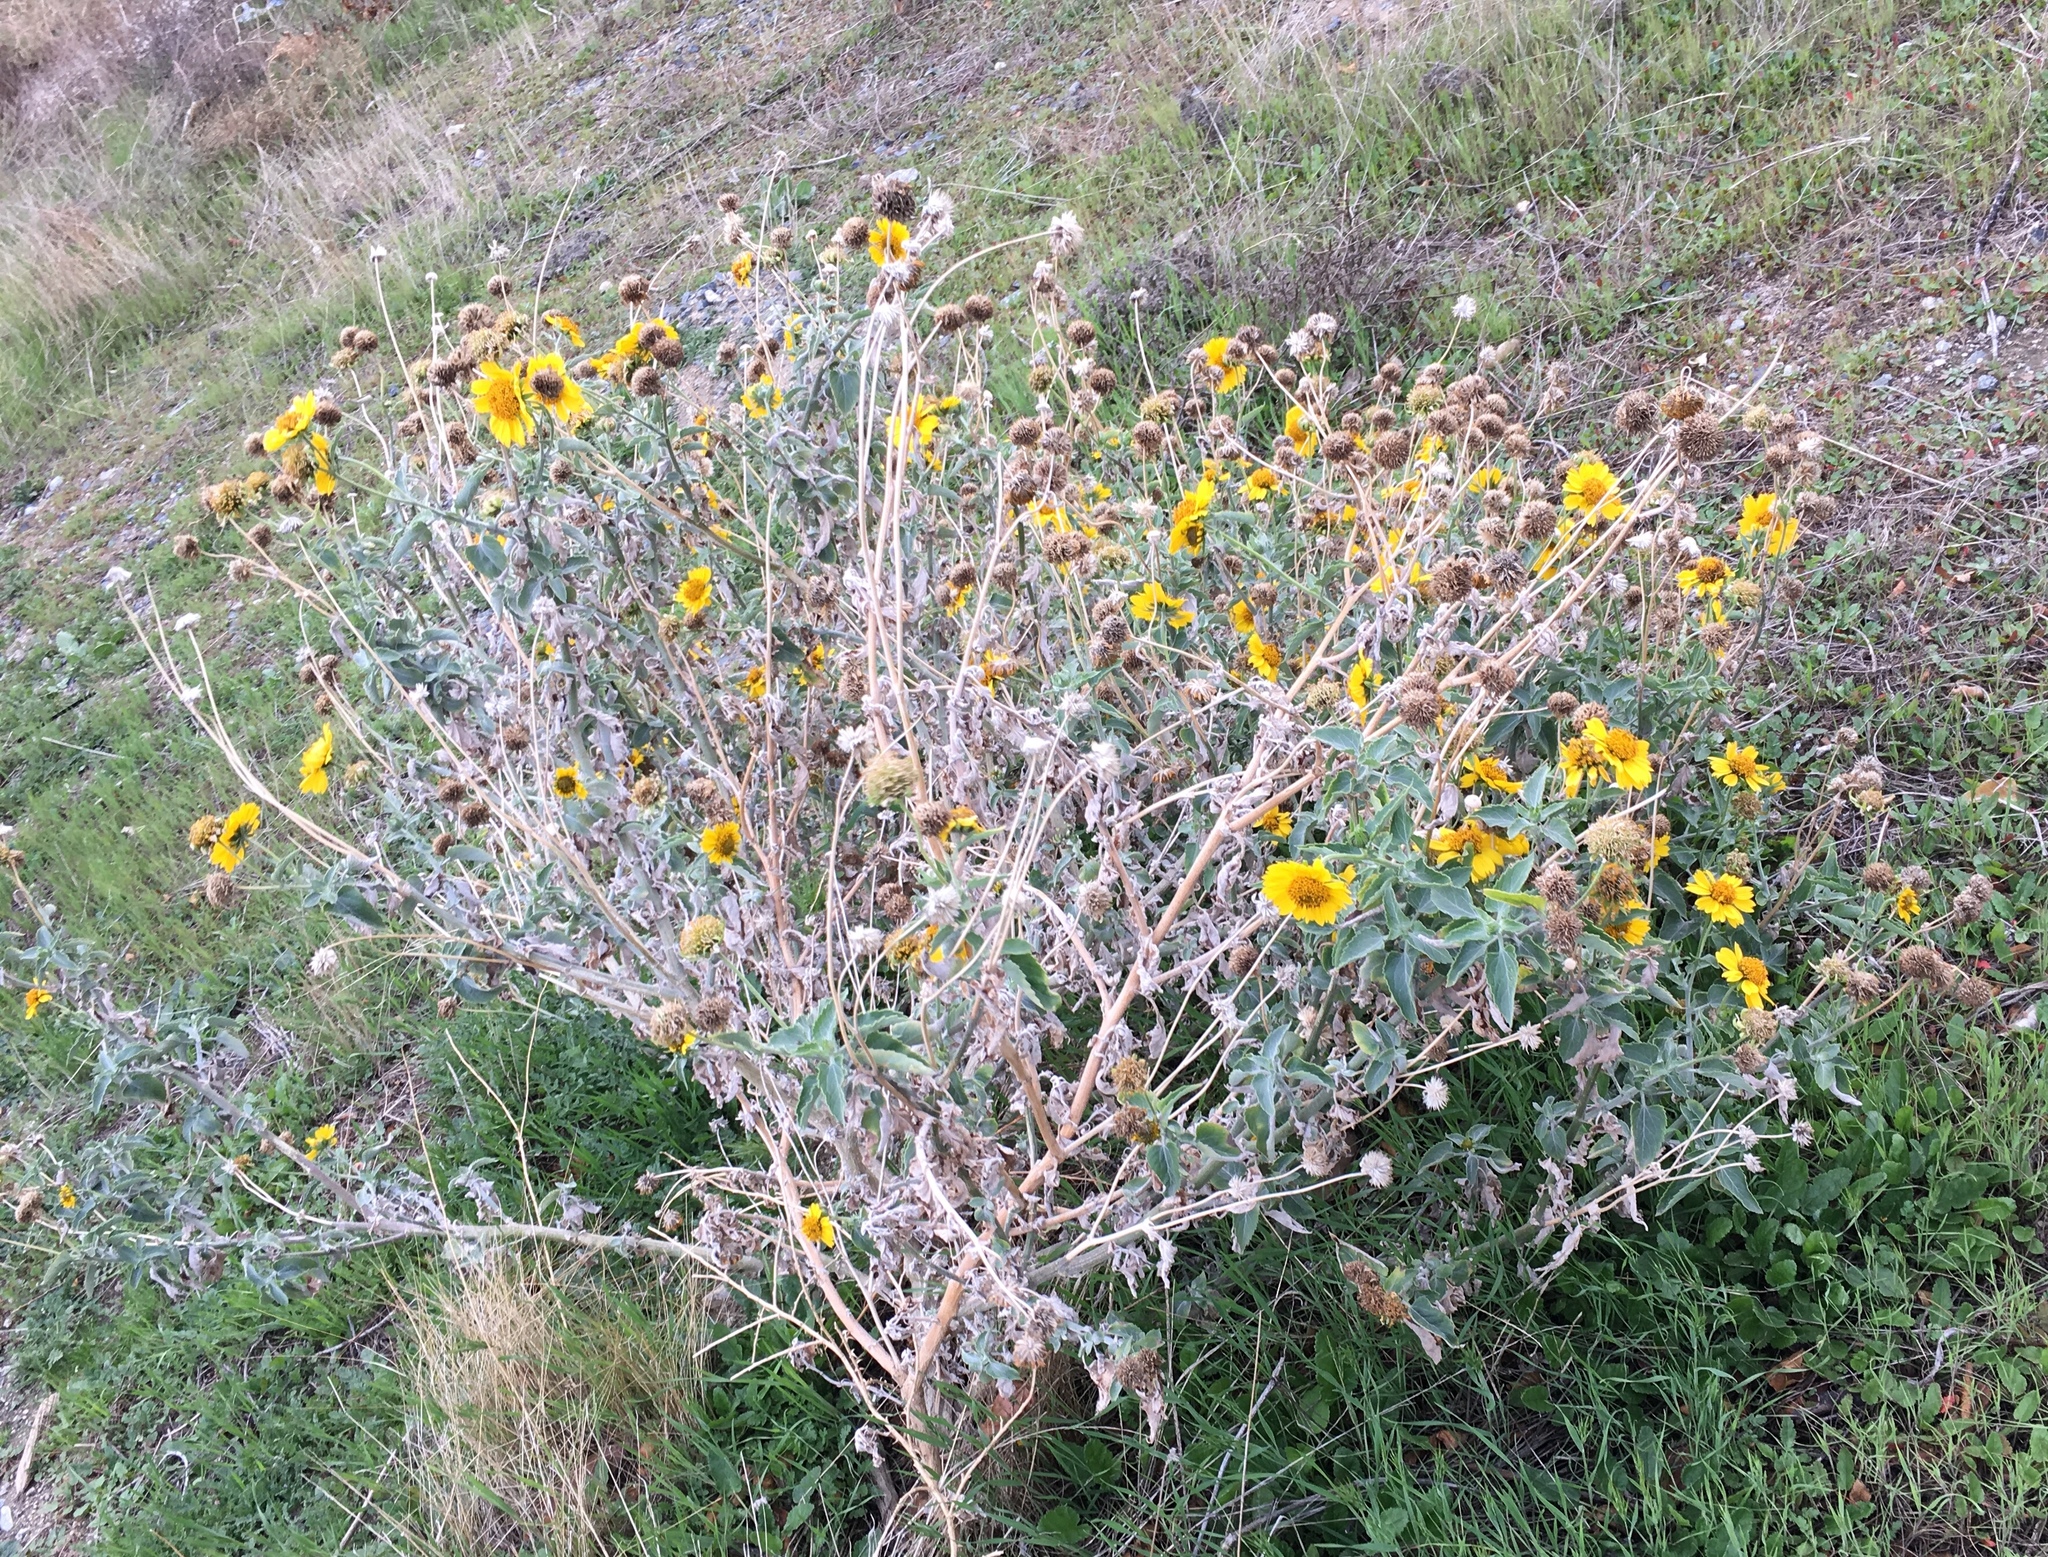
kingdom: Plantae
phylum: Tracheophyta
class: Magnoliopsida
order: Asterales
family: Asteraceae
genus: Verbesina
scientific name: Verbesina encelioides
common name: Golden crownbeard
